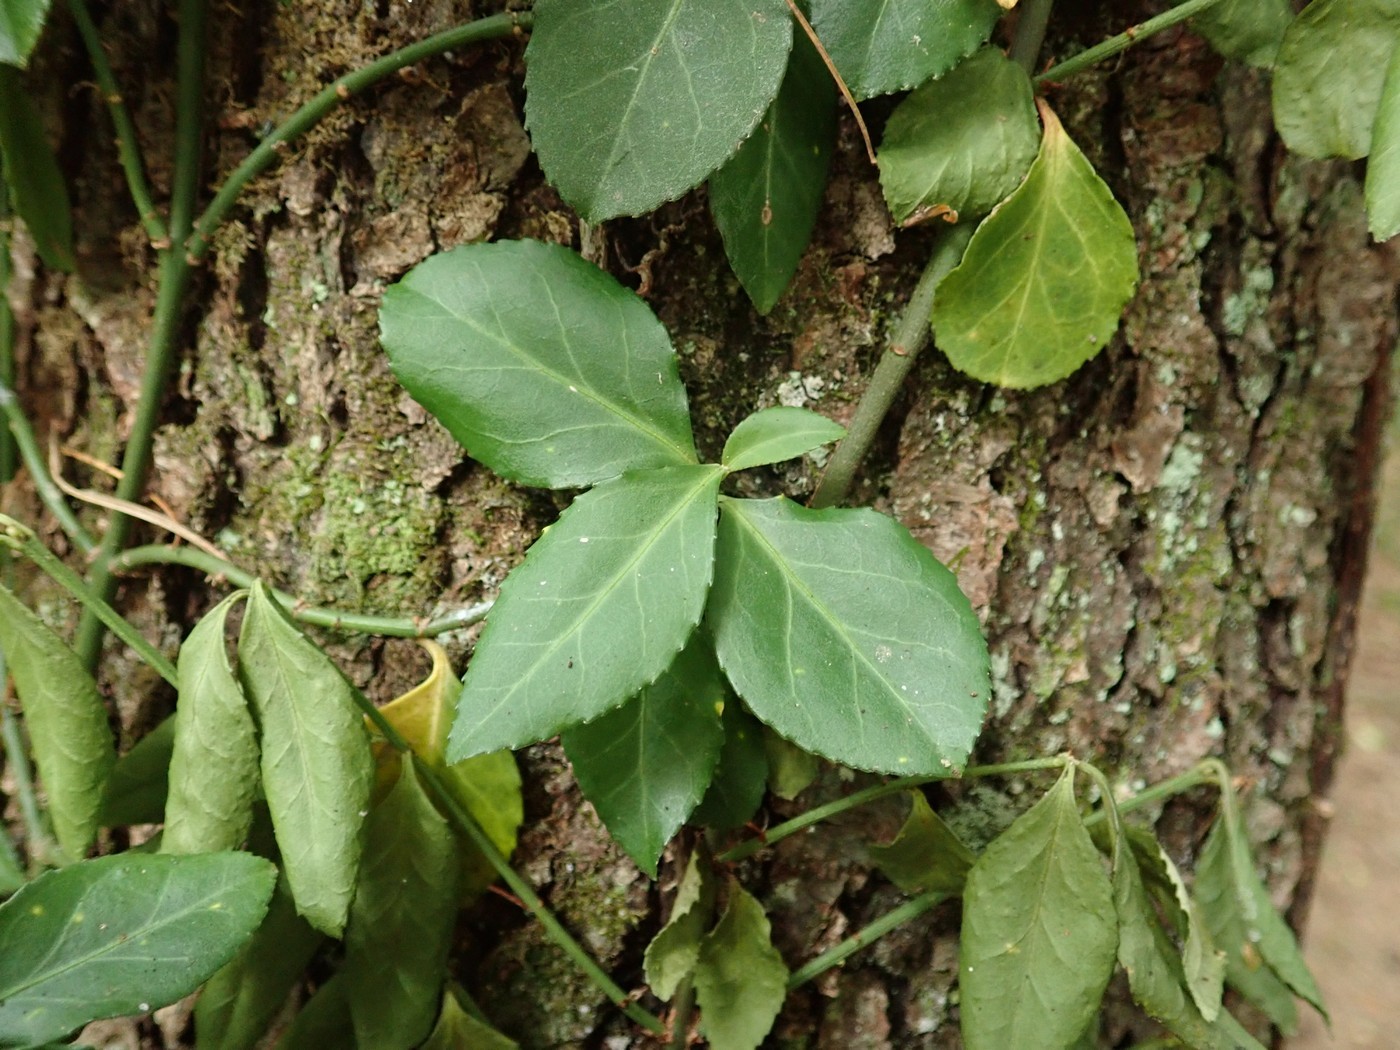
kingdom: Plantae
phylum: Tracheophyta
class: Magnoliopsida
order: Celastrales
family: Celastraceae
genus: Euonymus
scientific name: Euonymus fortunei
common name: Climbing euonymus
